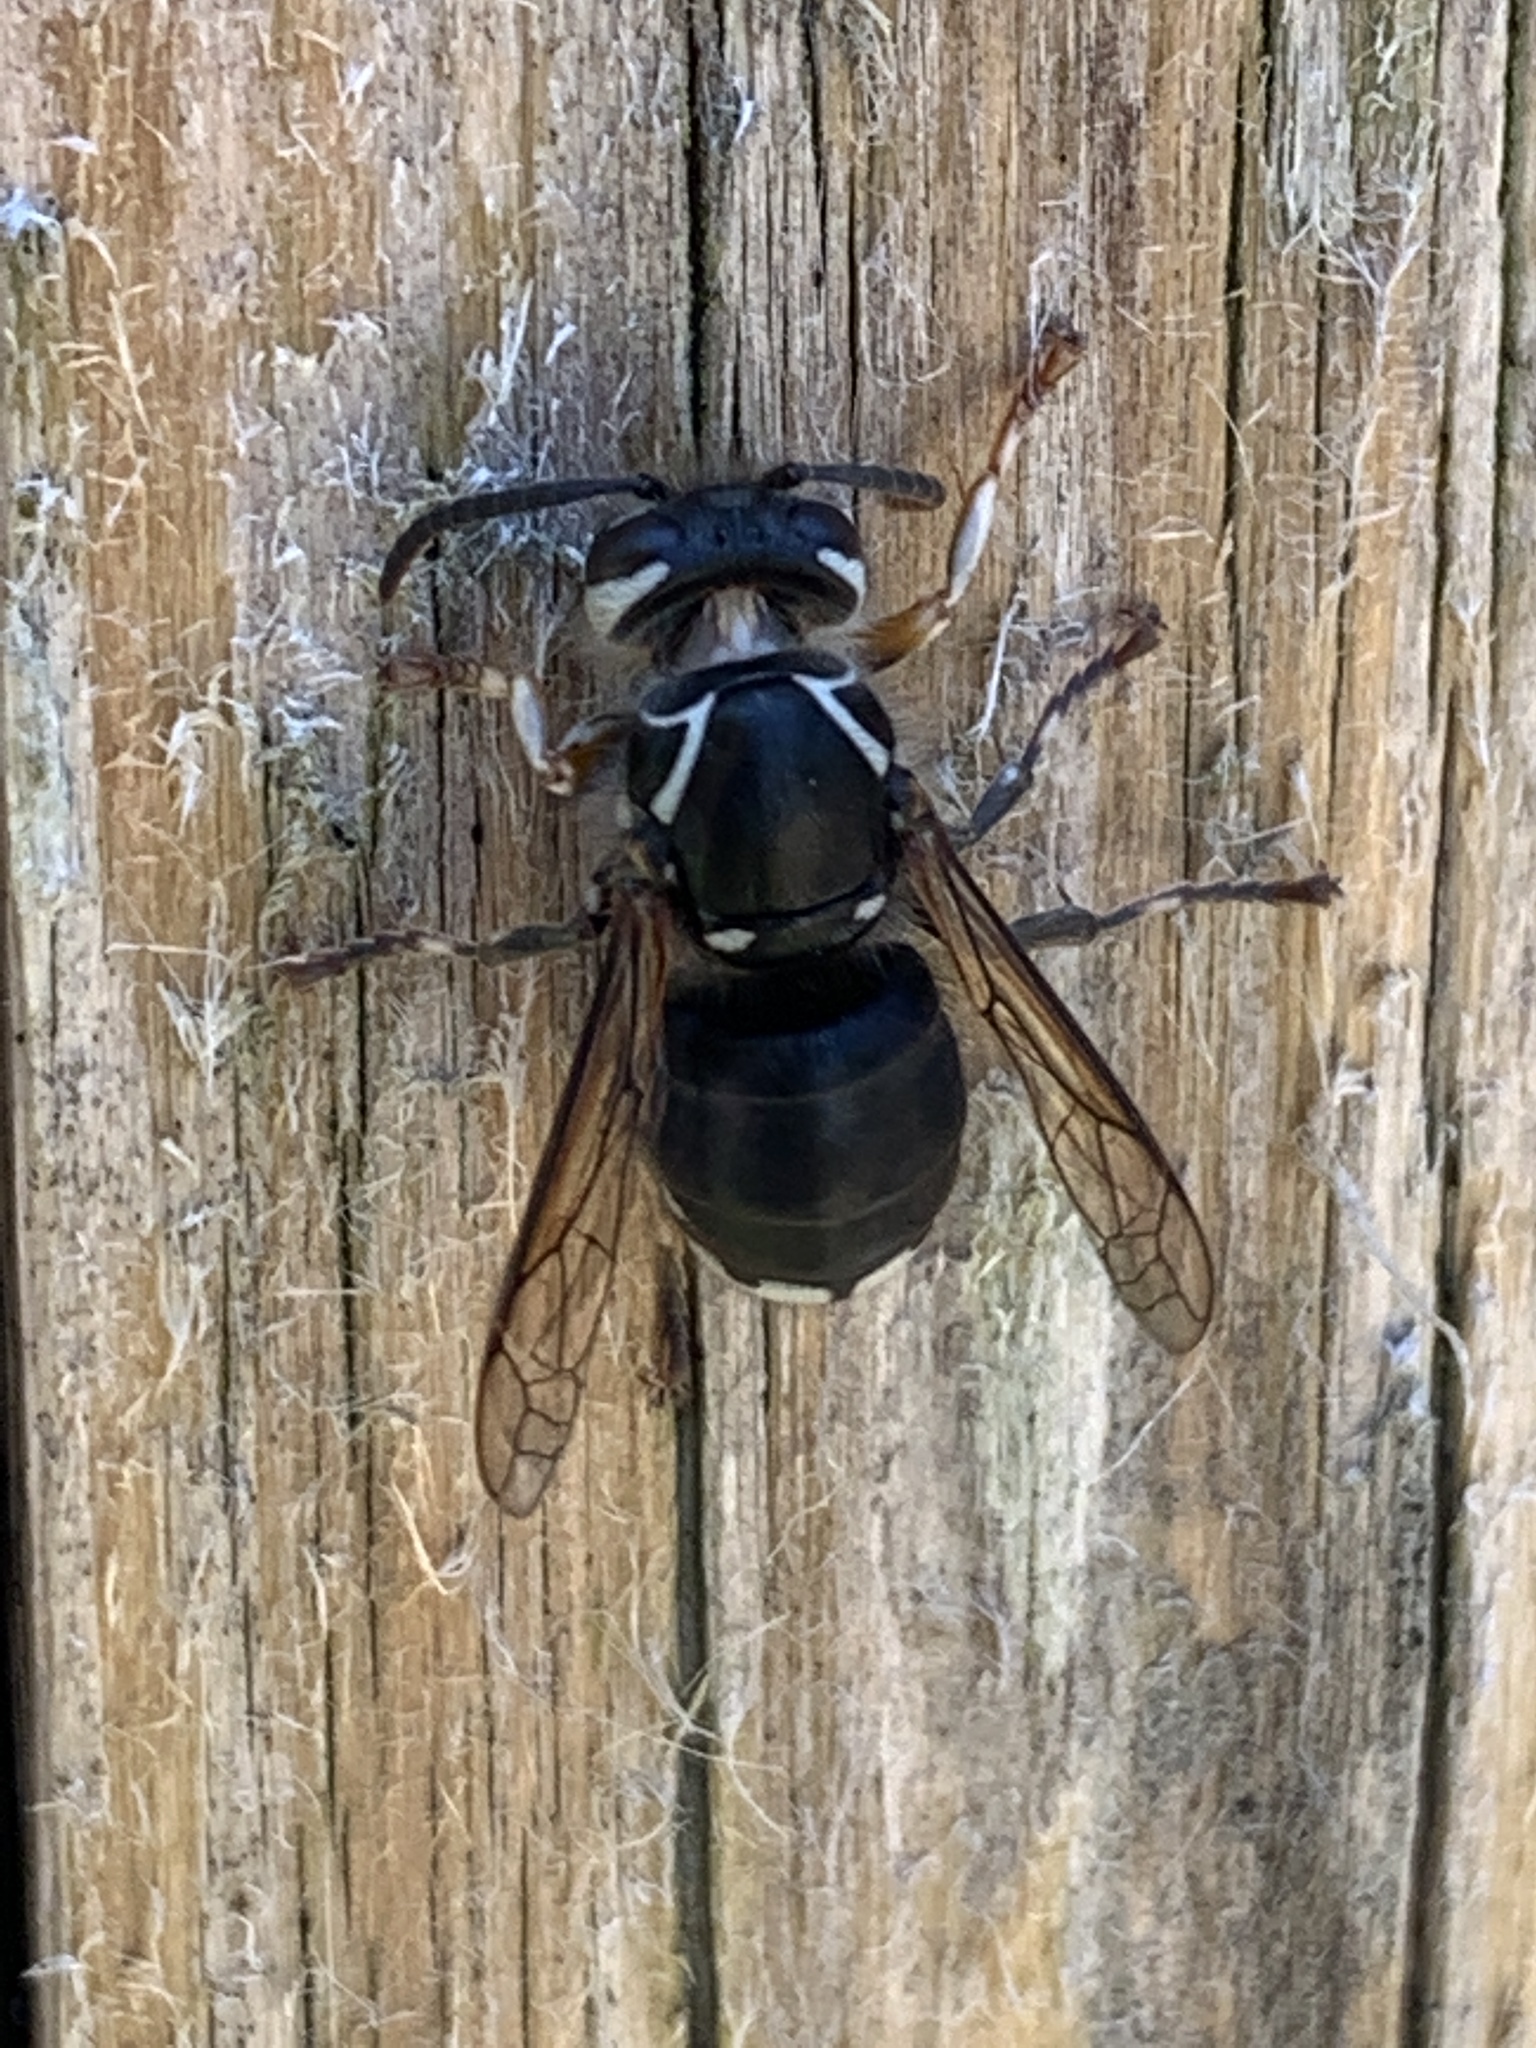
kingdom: Animalia
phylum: Arthropoda
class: Insecta
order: Hymenoptera
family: Vespidae
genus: Dolichovespula
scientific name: Dolichovespula maculata
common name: Bald-faced hornet
